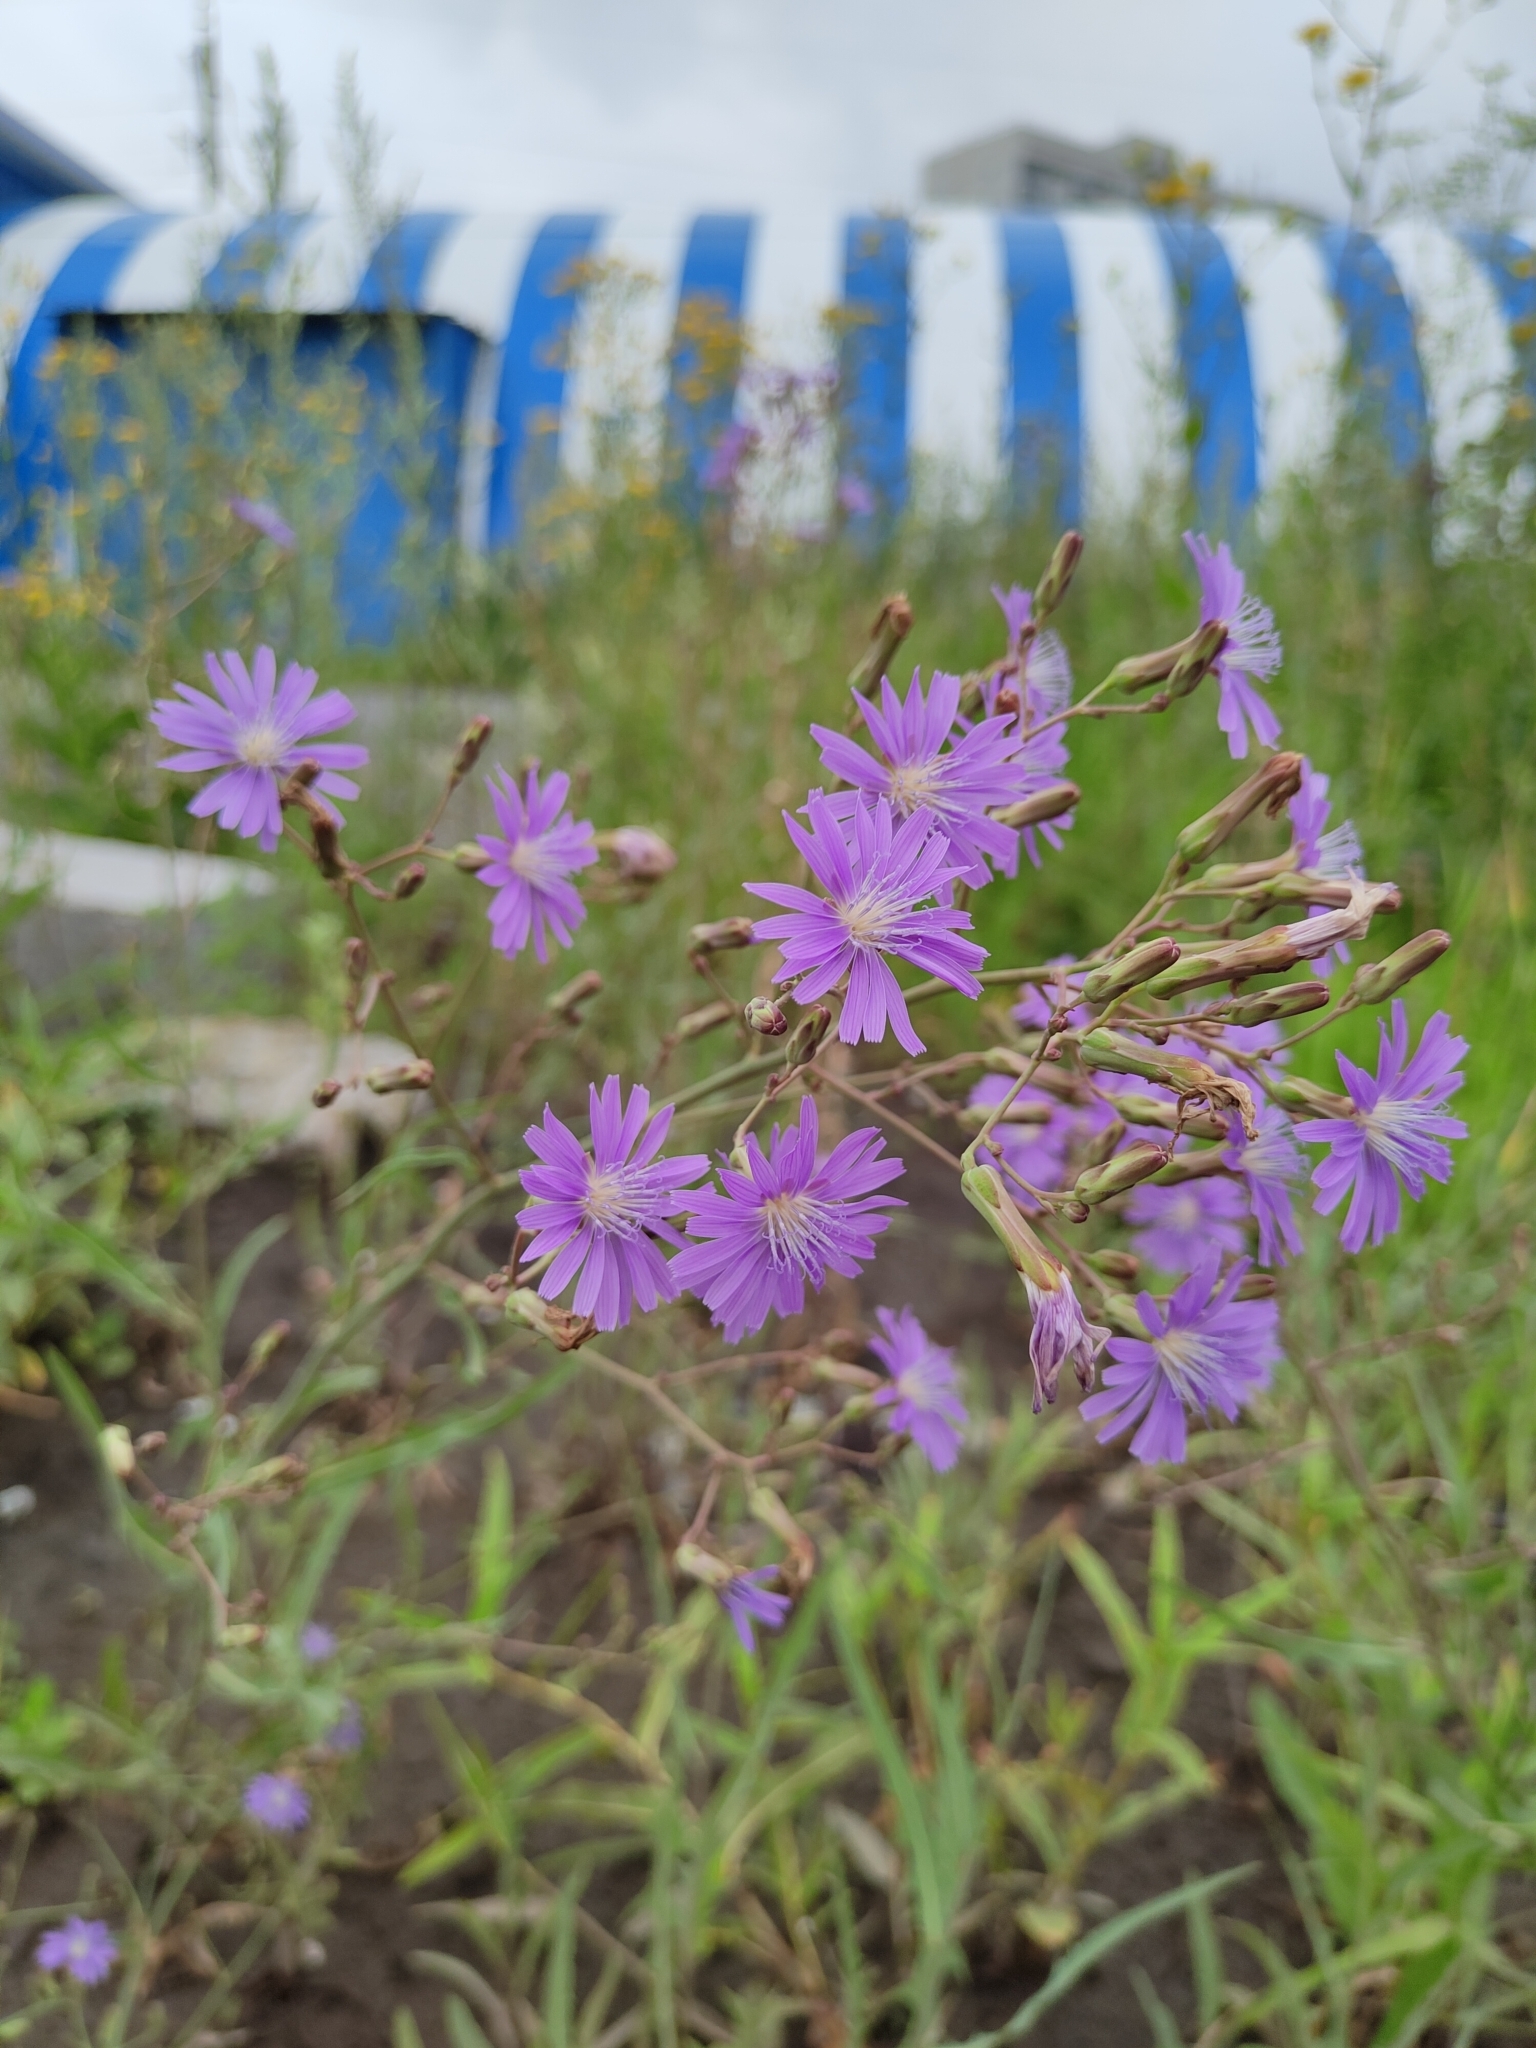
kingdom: Plantae
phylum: Tracheophyta
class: Magnoliopsida
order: Asterales
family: Asteraceae
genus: Lactuca
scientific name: Lactuca tatarica
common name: Blue lettuce
